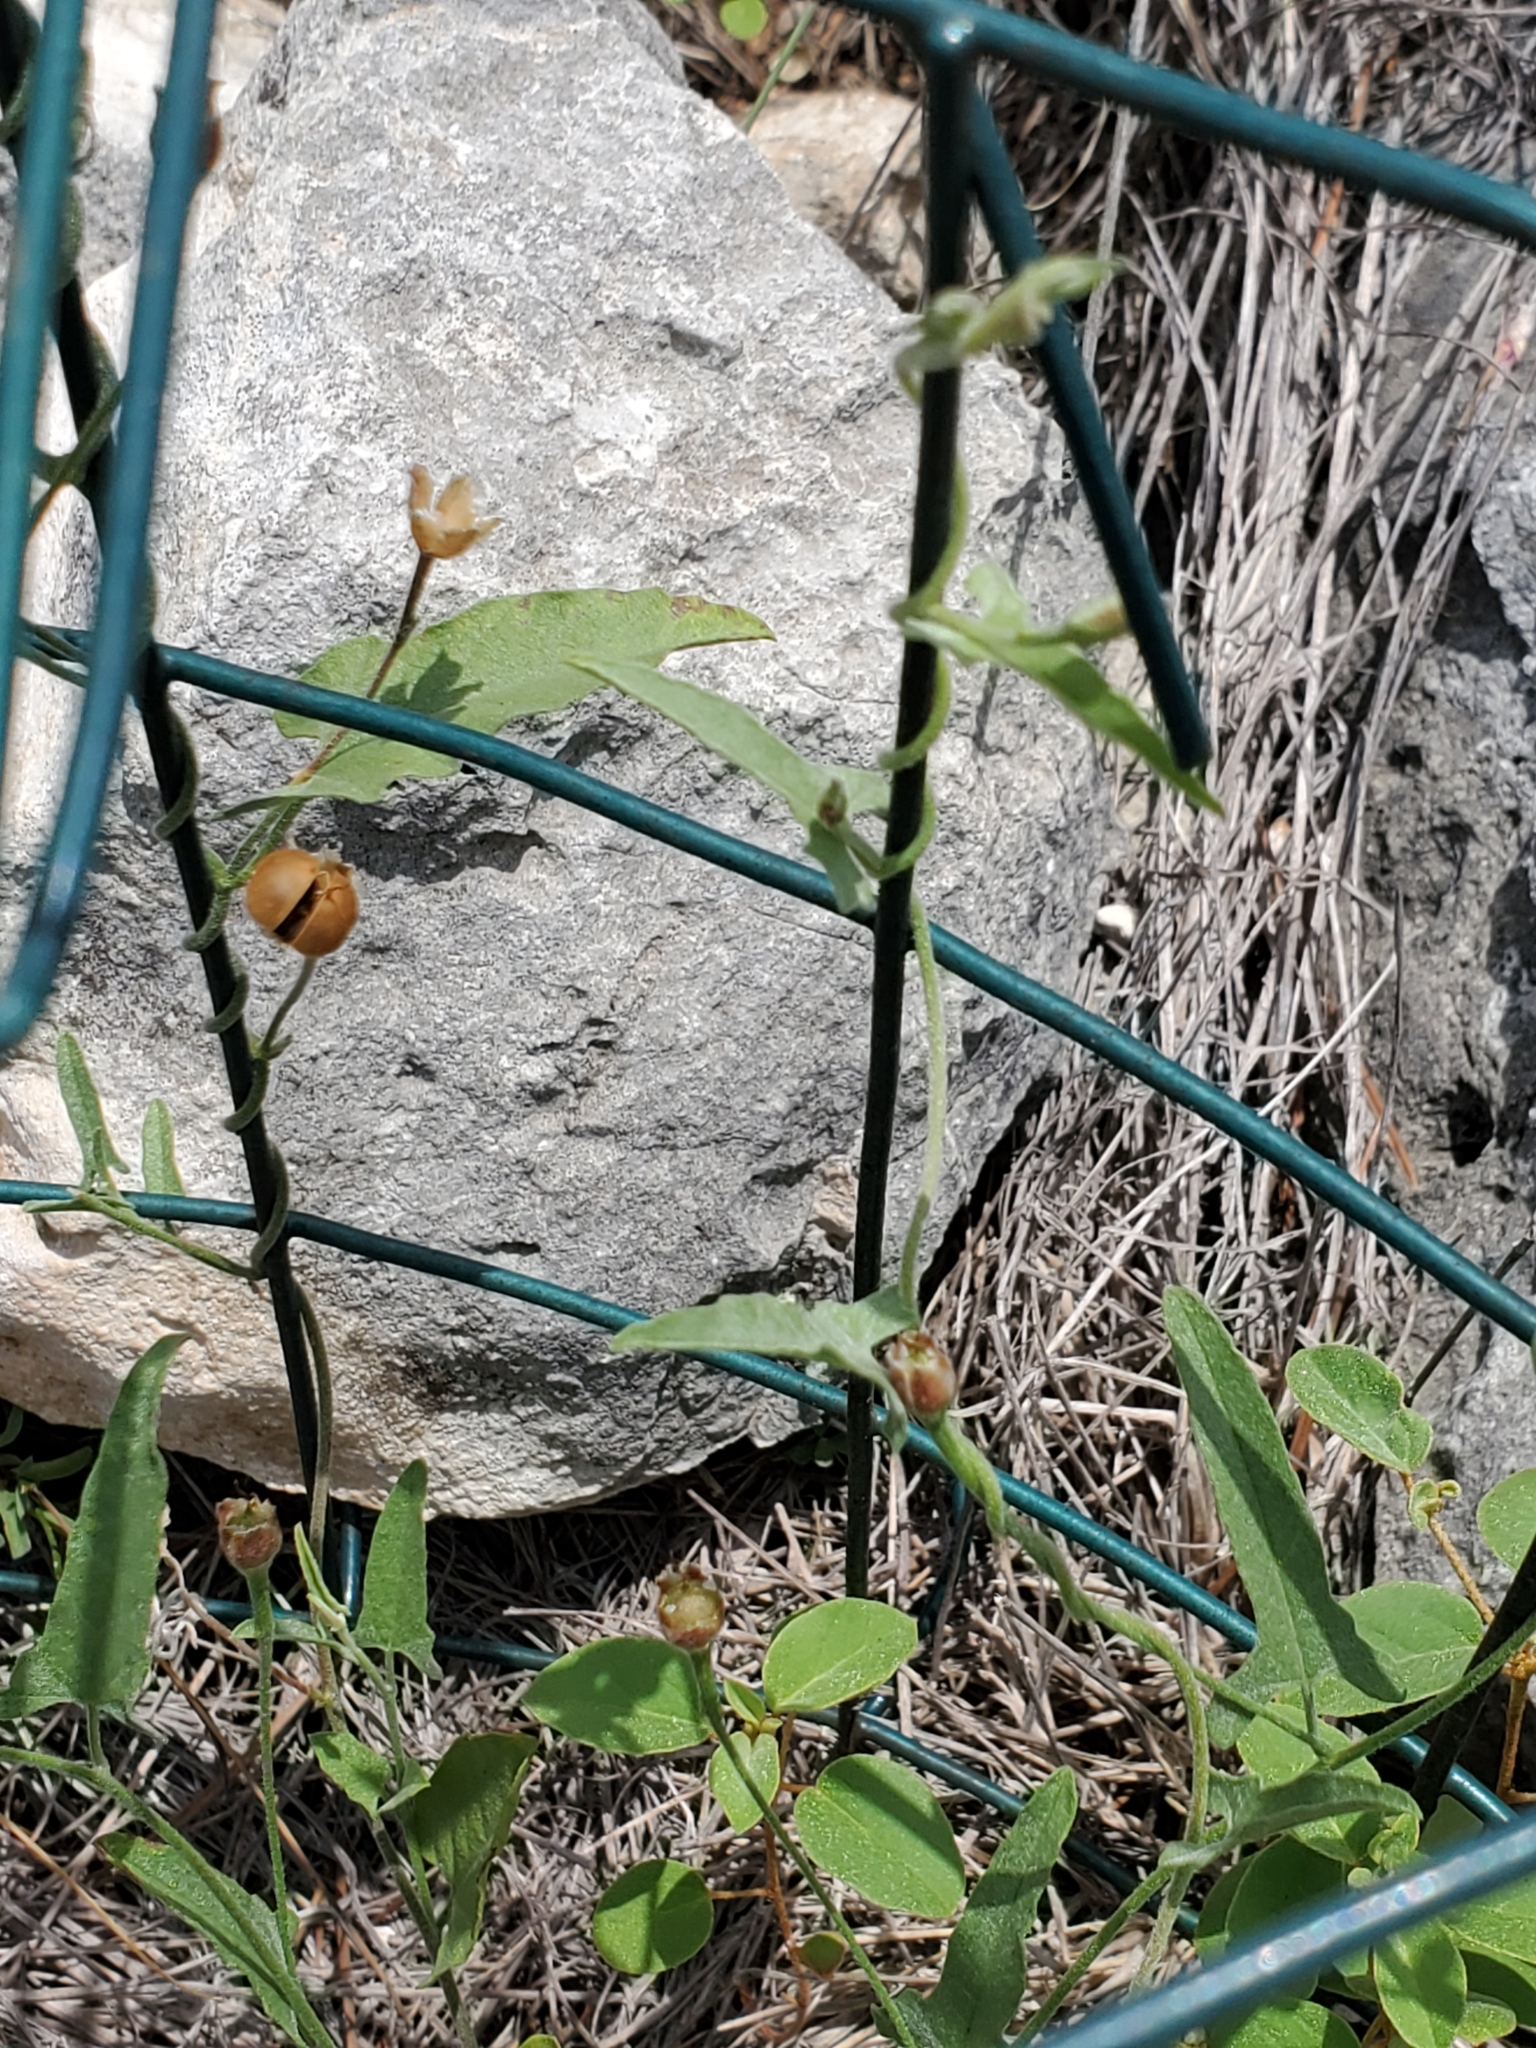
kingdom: Plantae
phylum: Tracheophyta
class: Magnoliopsida
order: Solanales
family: Convolvulaceae
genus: Convolvulus
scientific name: Convolvulus equitans
